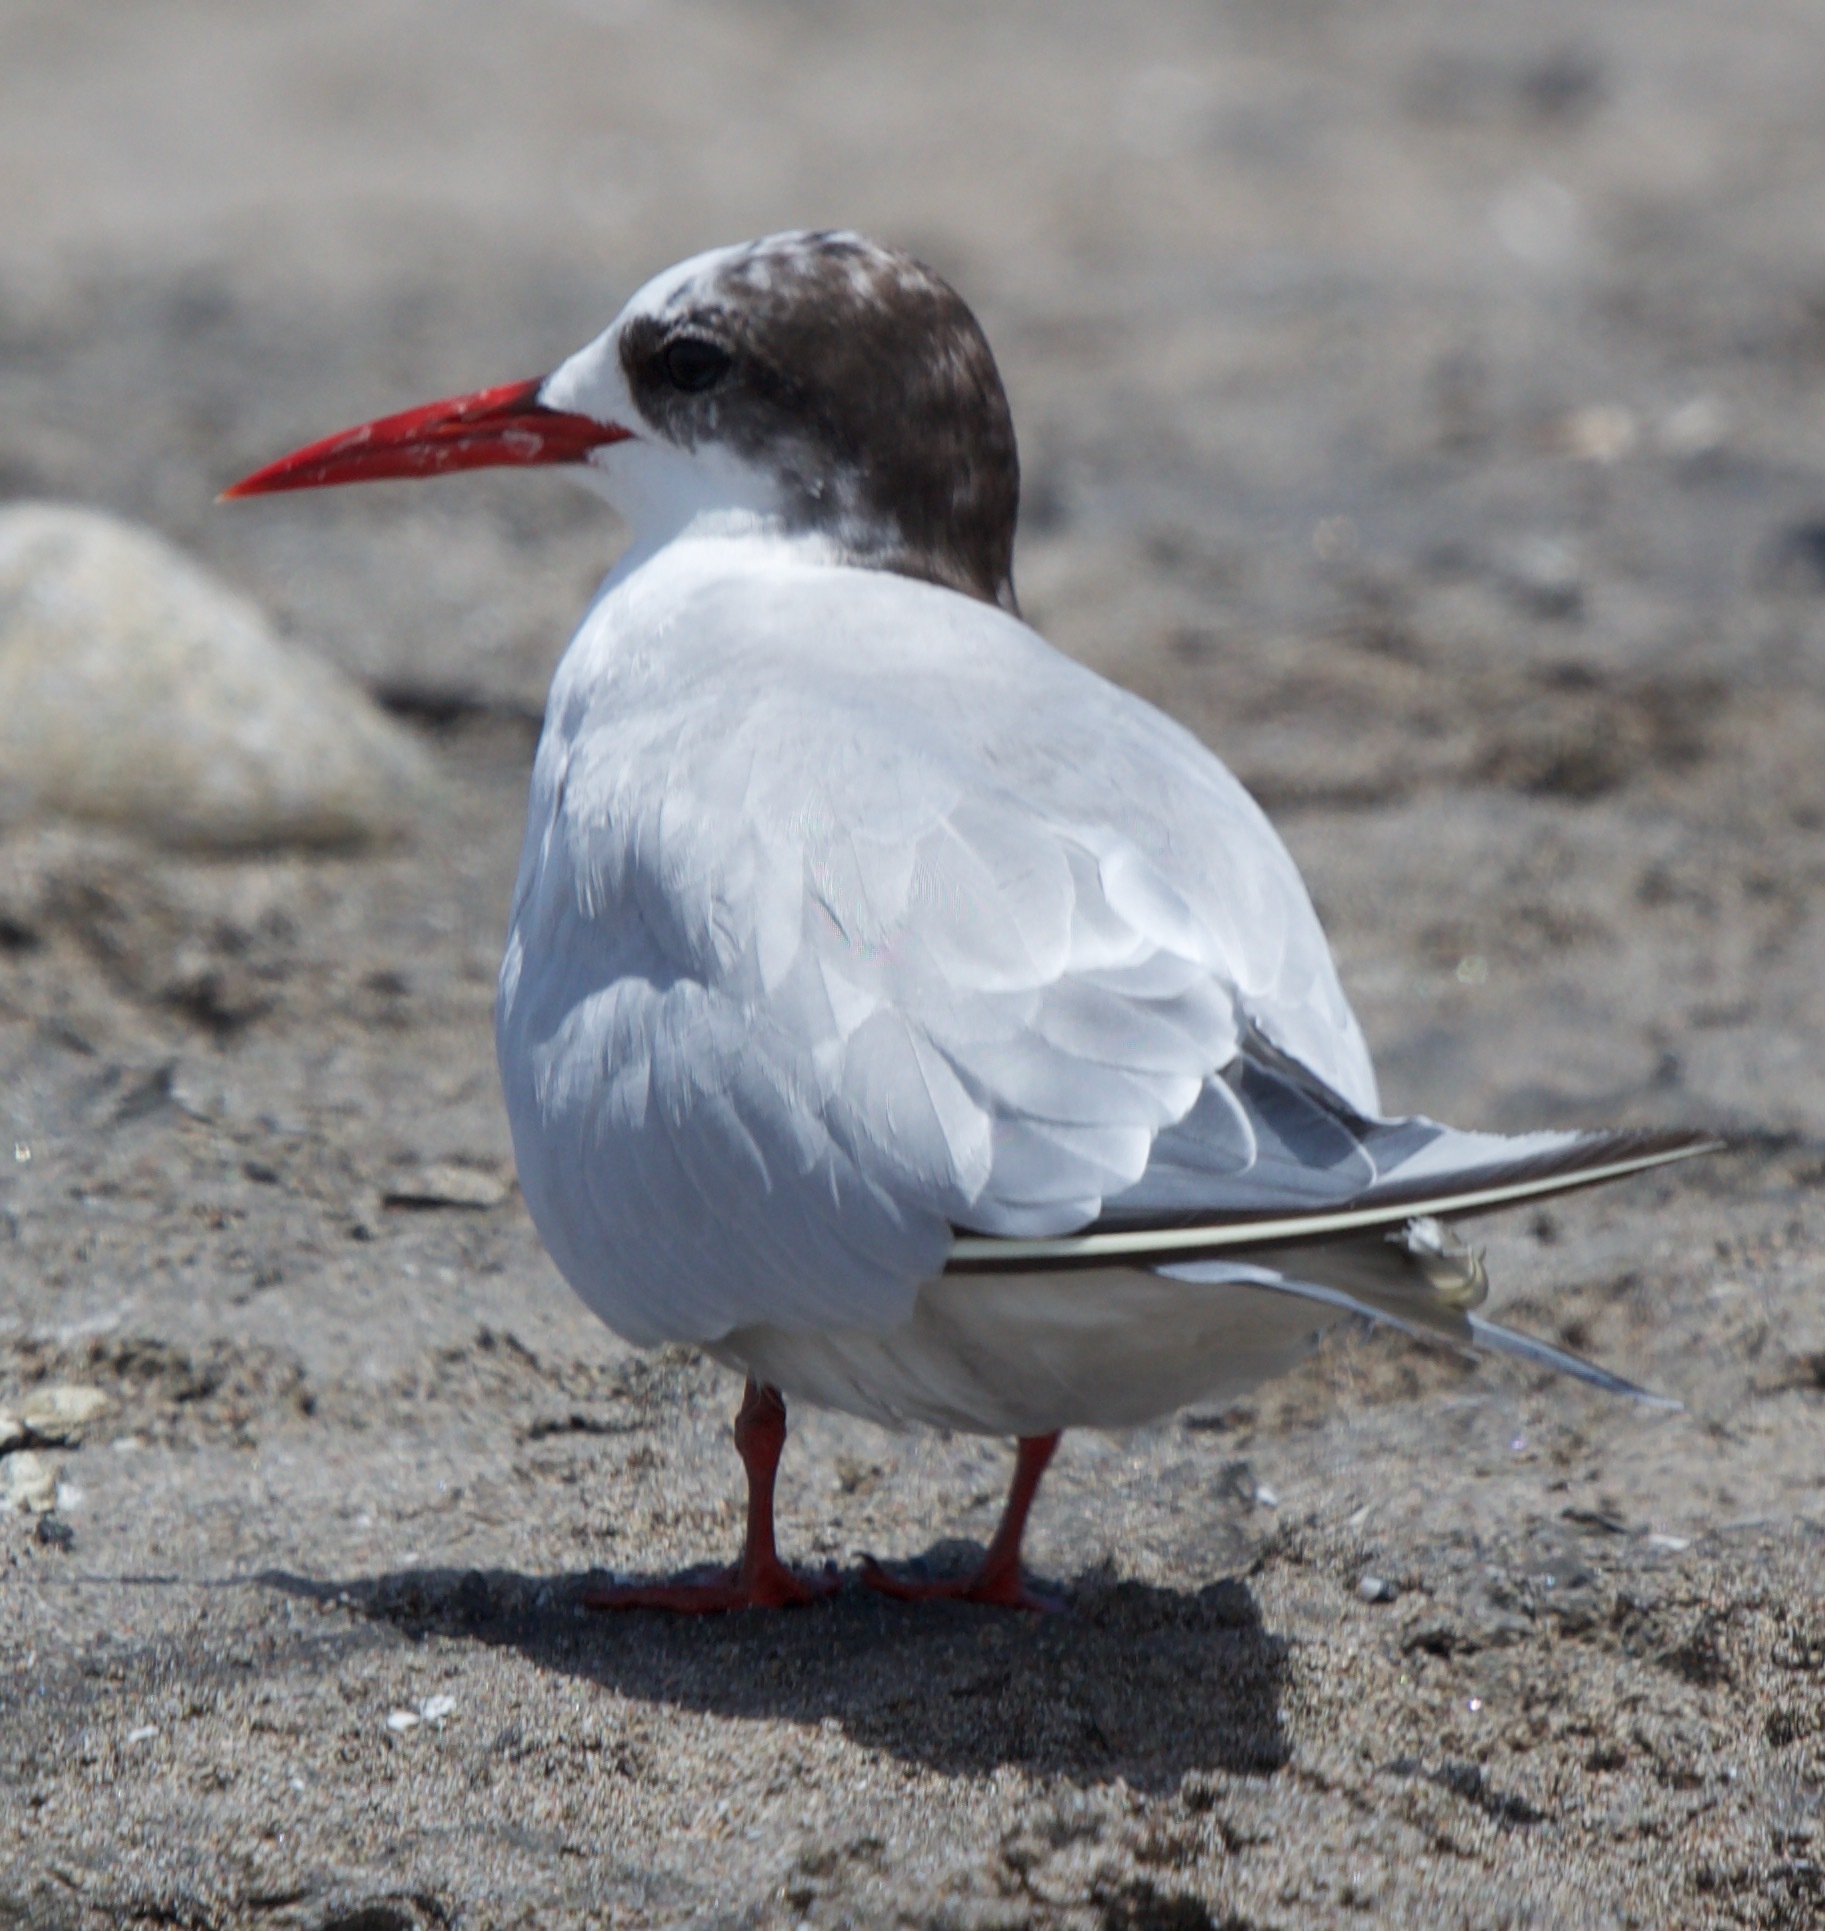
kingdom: Animalia
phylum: Chordata
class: Aves
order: Charadriiformes
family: Laridae
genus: Sterna
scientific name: Sterna hirundinacea
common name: South american tern
